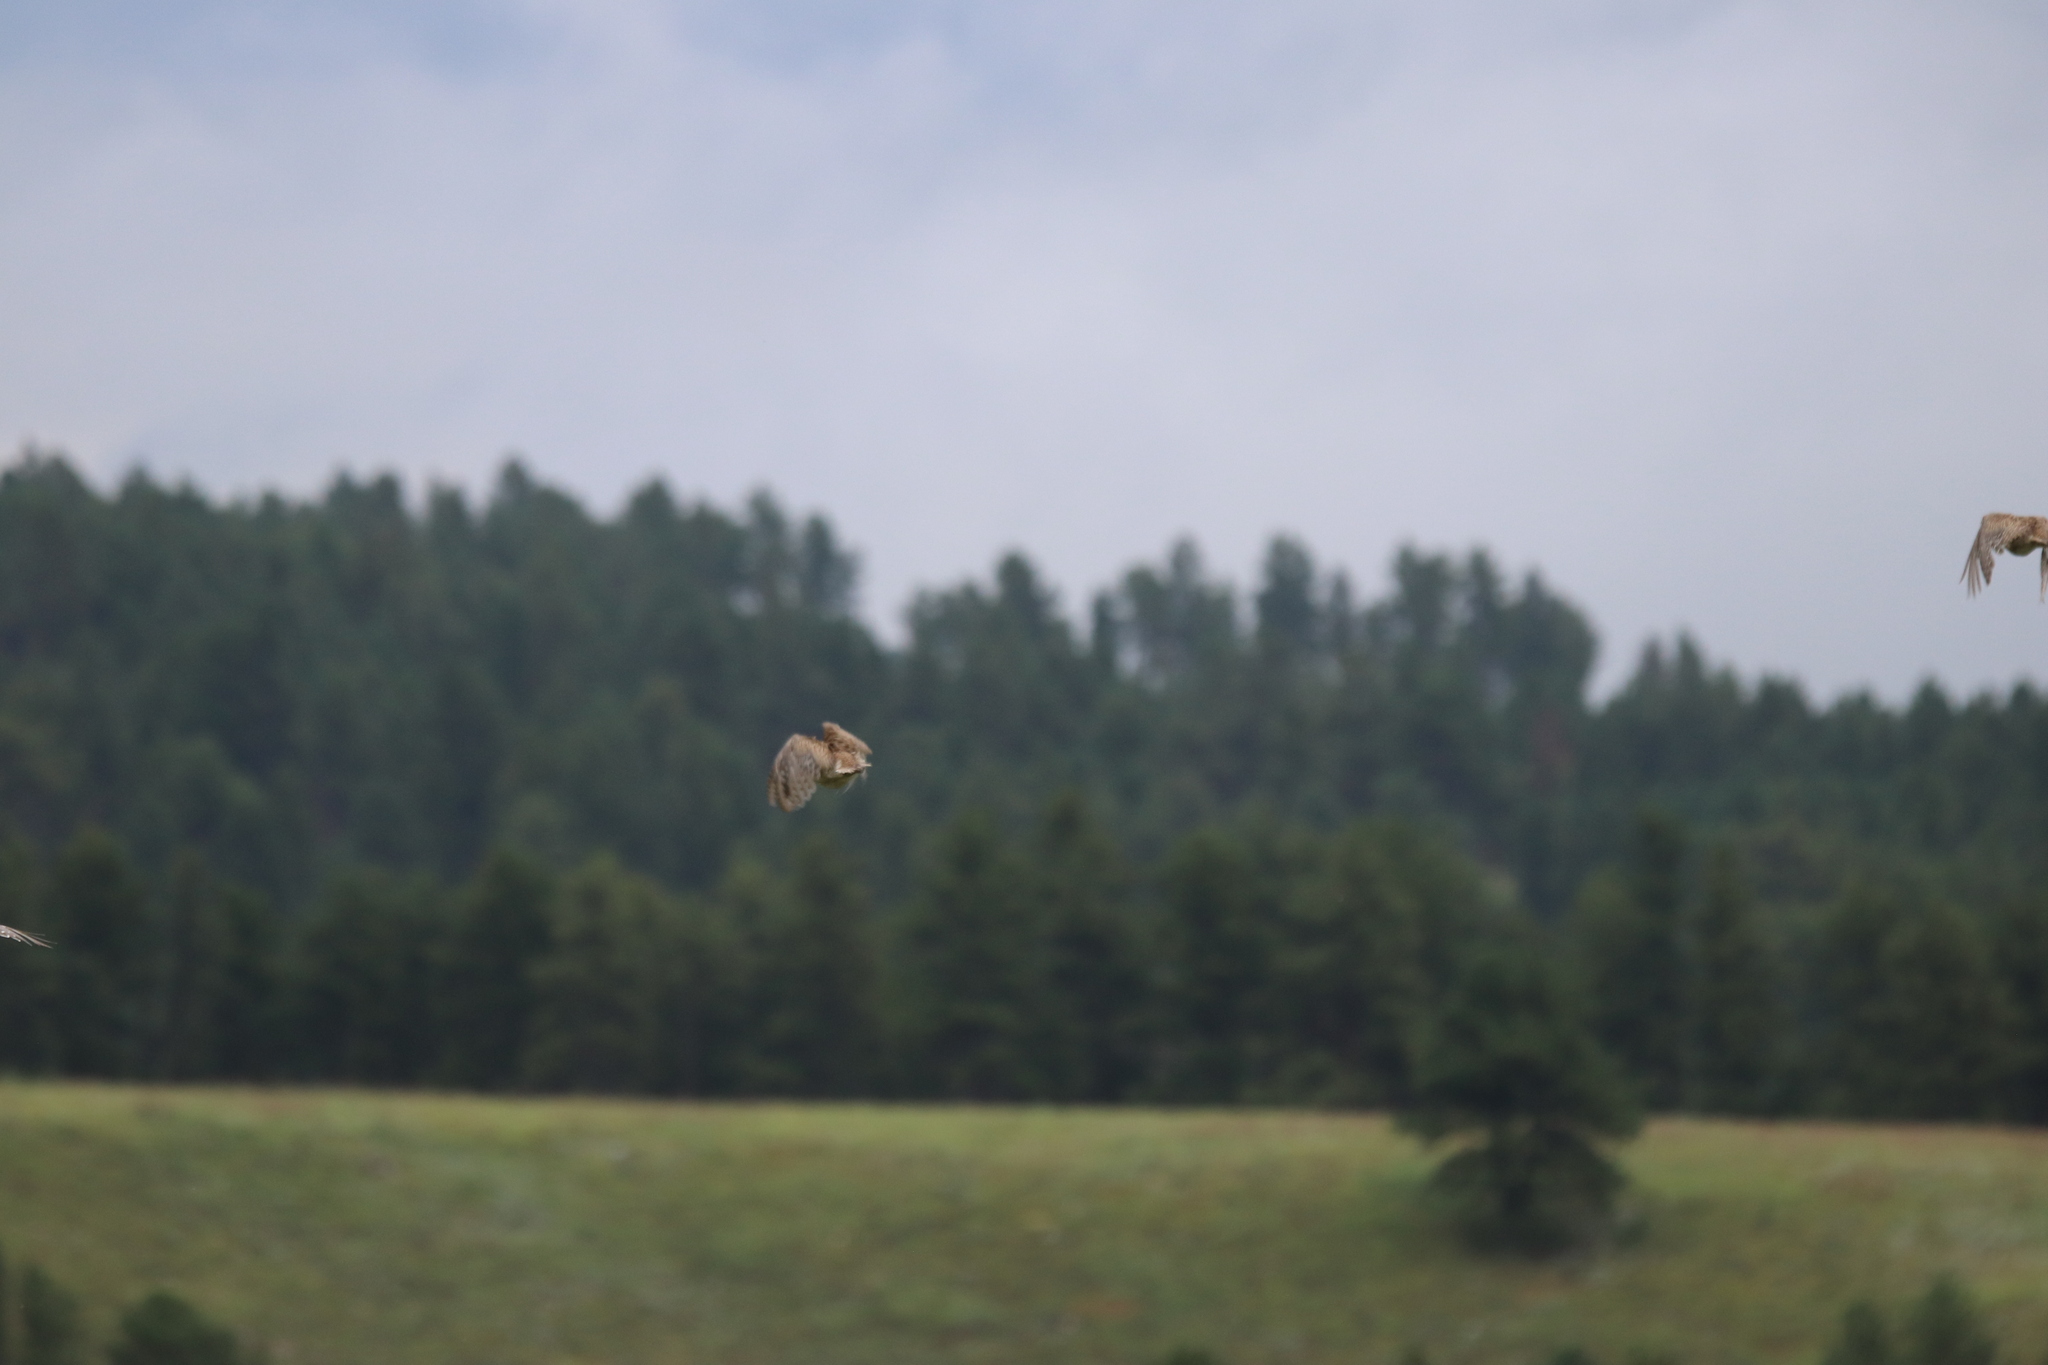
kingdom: Animalia
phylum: Chordata
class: Aves
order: Galliformes
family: Phasianidae
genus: Tympanuchus
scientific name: Tympanuchus phasianellus
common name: Sharp-tailed grouse
